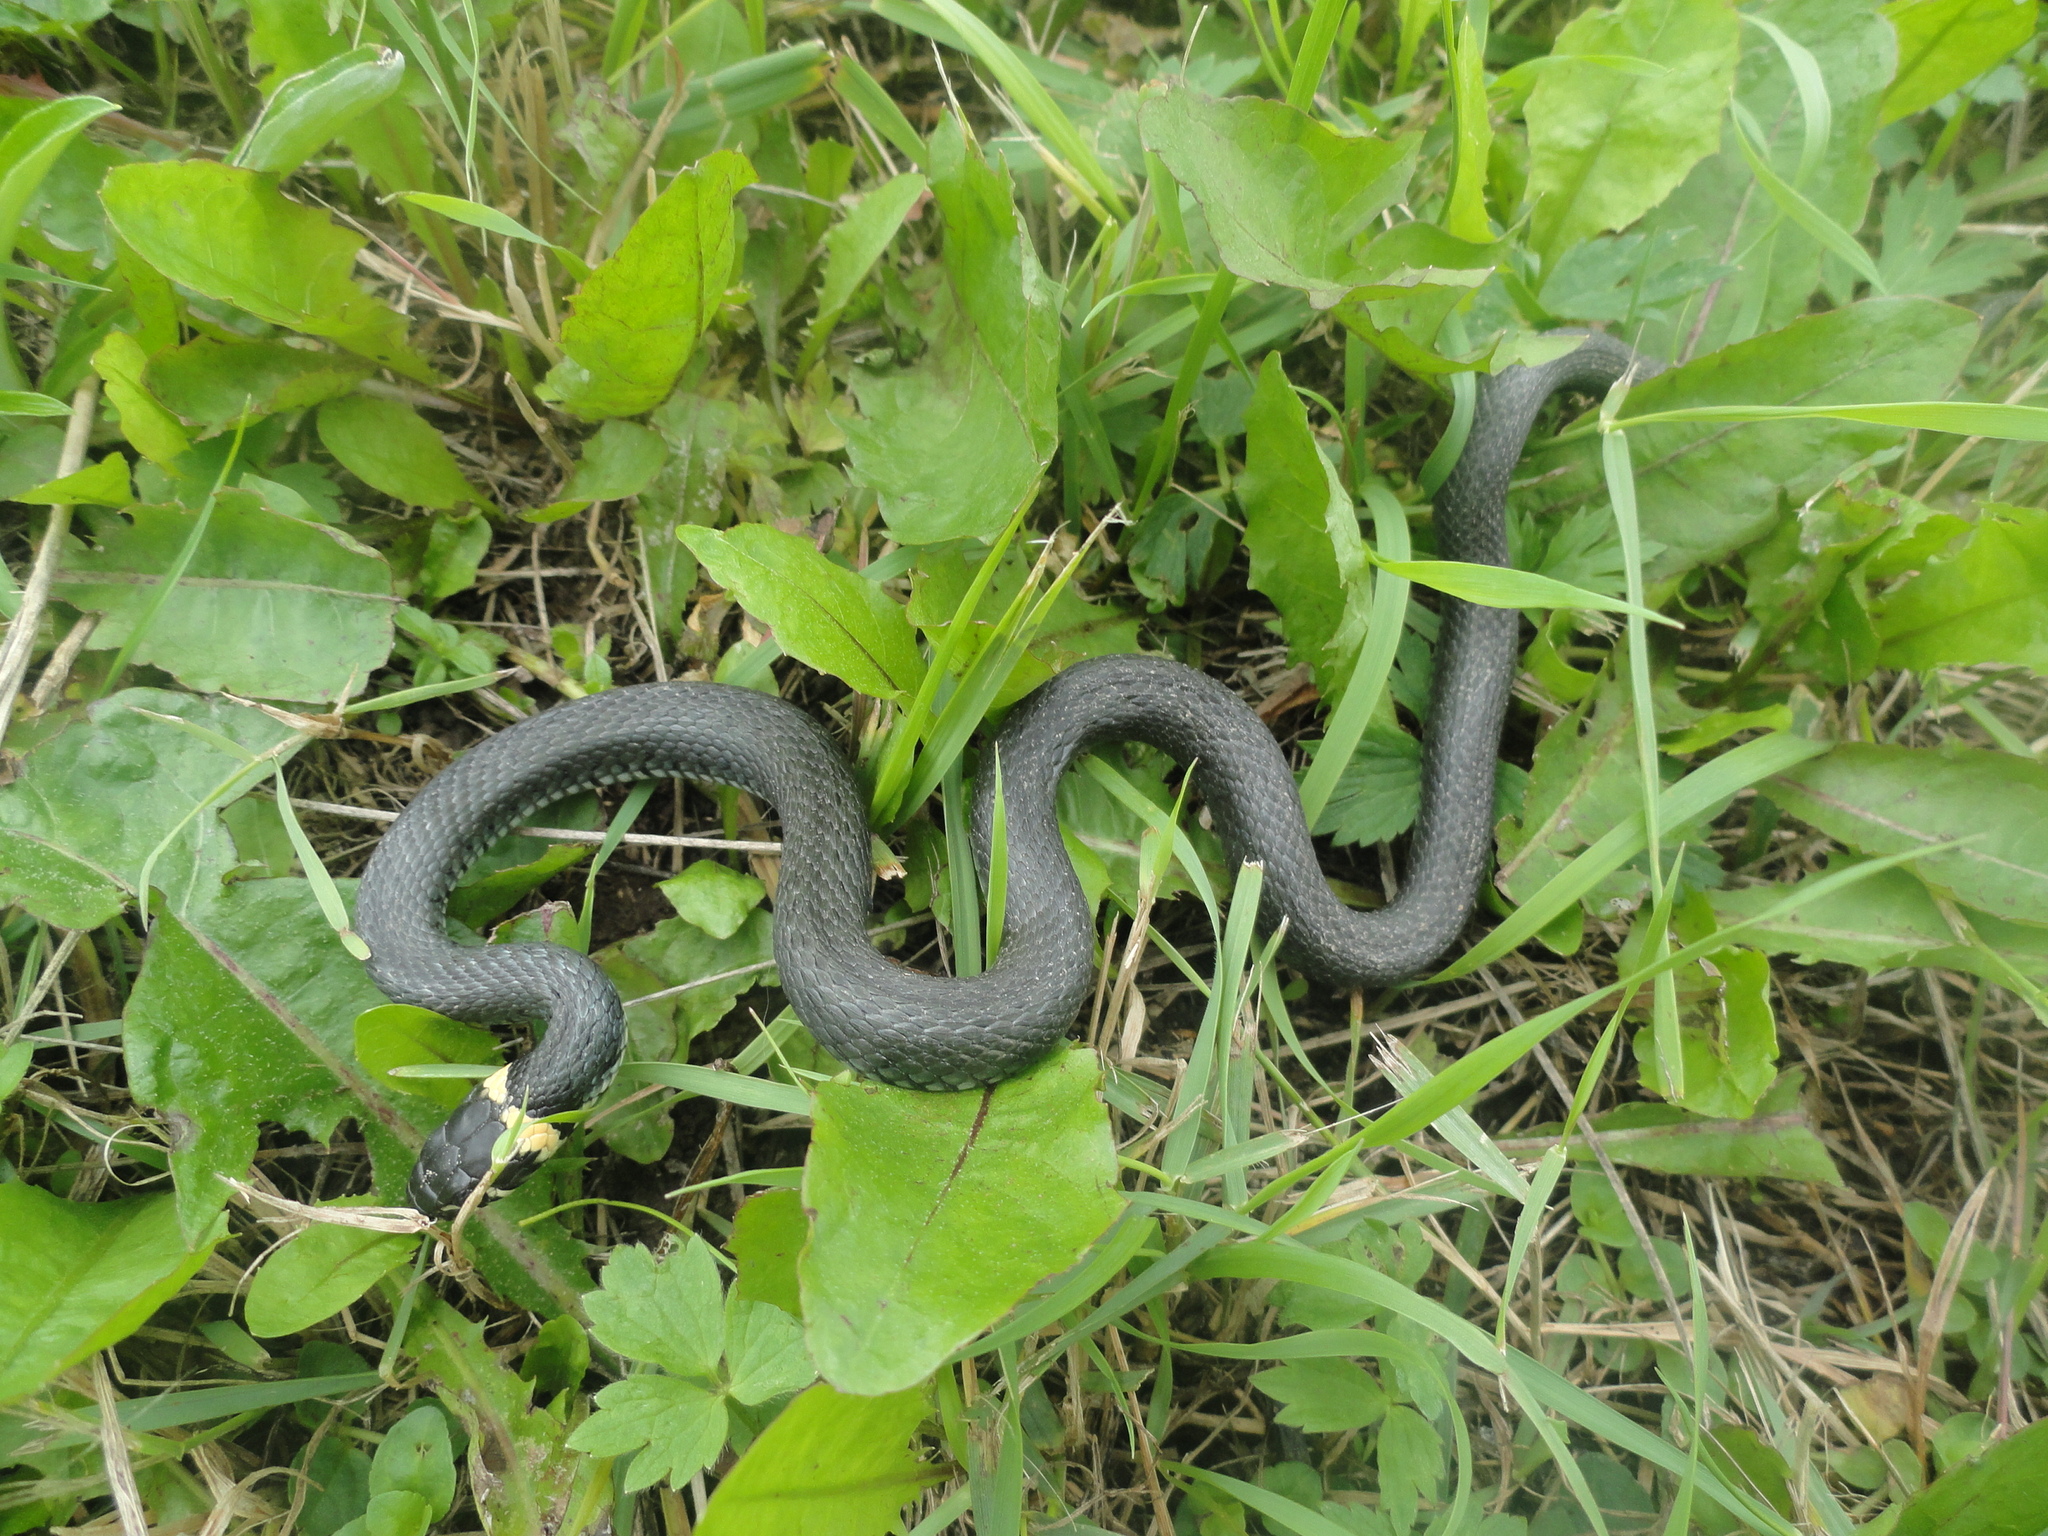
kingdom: Animalia
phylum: Chordata
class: Squamata
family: Colubridae
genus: Natrix
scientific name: Natrix natrix
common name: Grass snake
